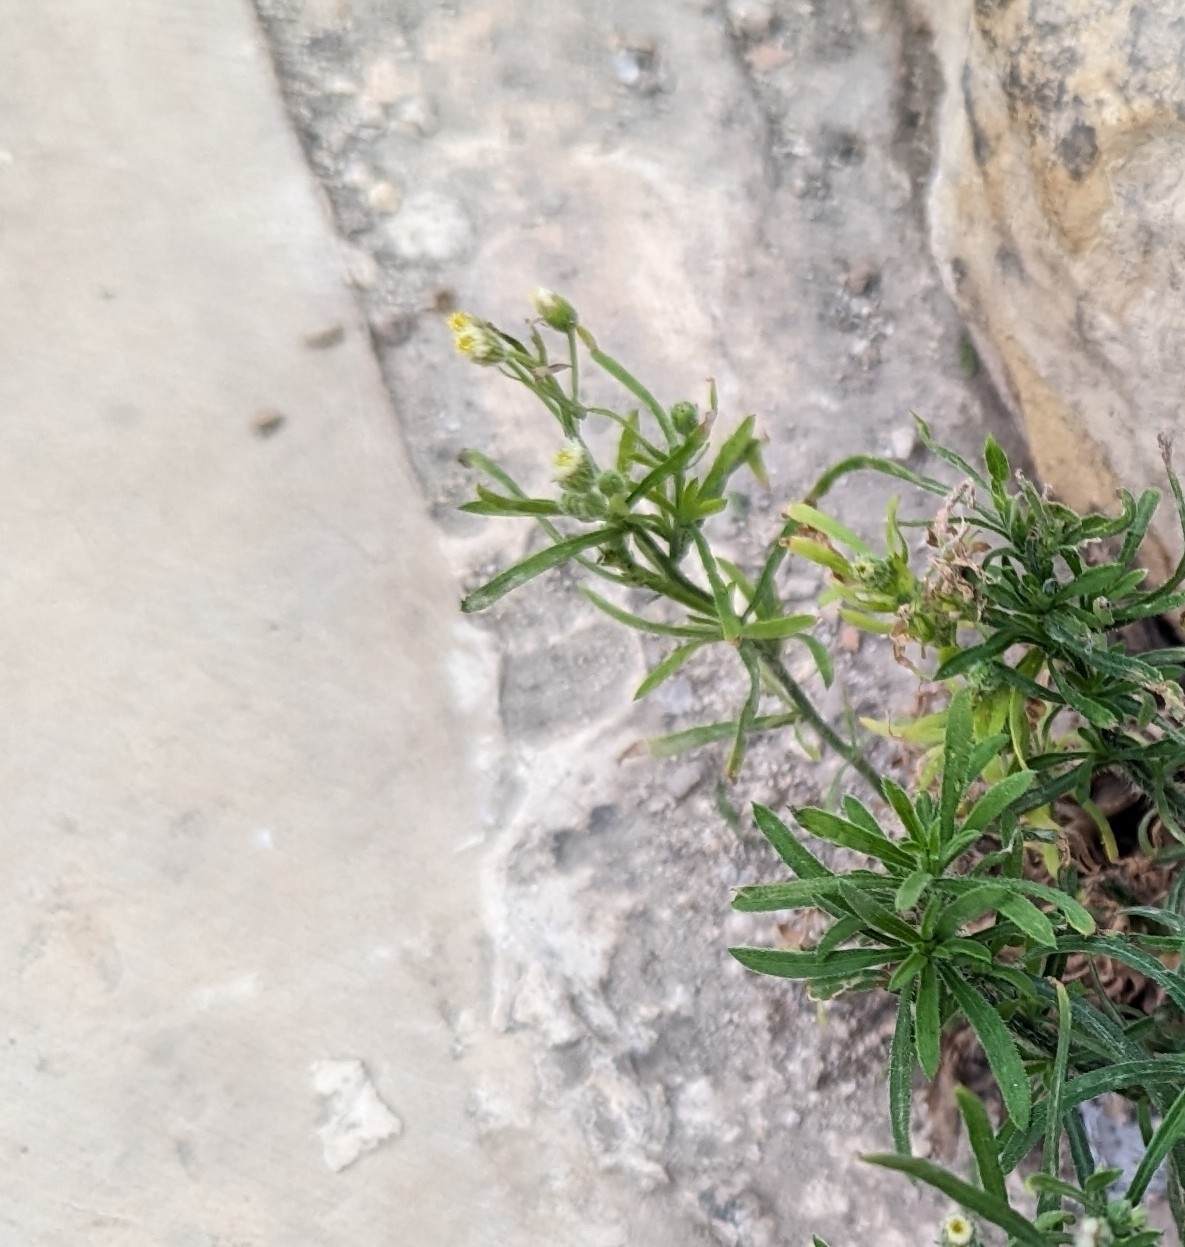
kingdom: Plantae
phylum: Tracheophyta
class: Magnoliopsida
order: Asterales
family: Asteraceae
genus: Erigeron
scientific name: Erigeron bonariensis
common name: Argentine fleabane
